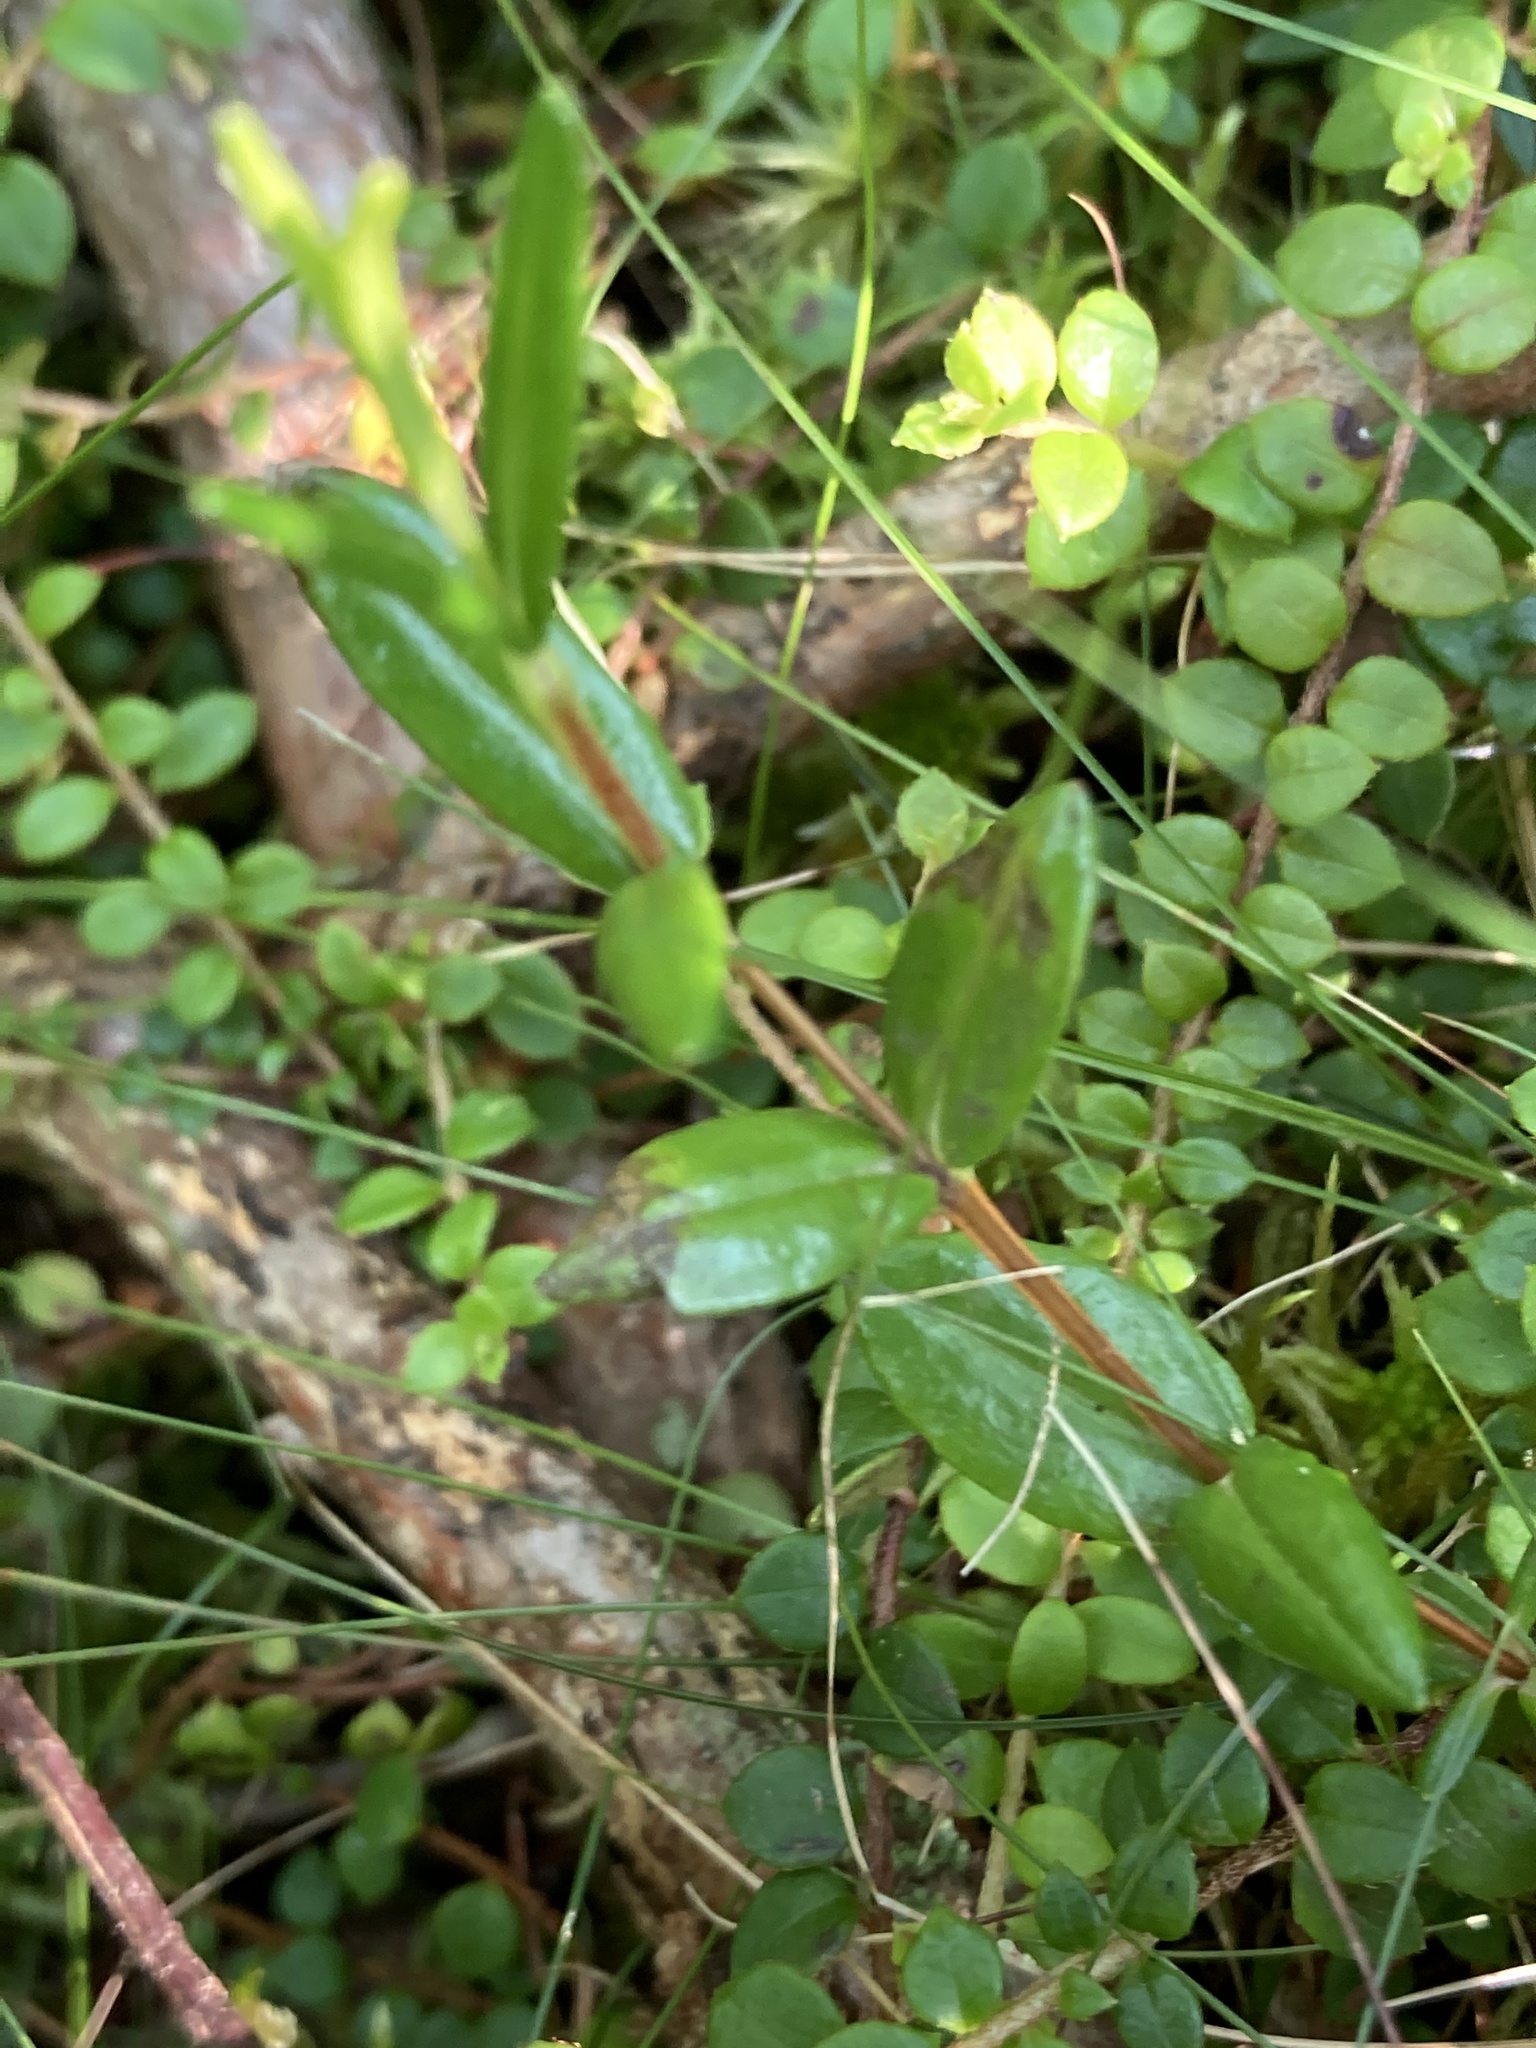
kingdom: Plantae
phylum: Tracheophyta
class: Magnoliopsida
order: Ericales
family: Ericaceae
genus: Kalmia
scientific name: Kalmia polifolia
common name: Bog-laurel
